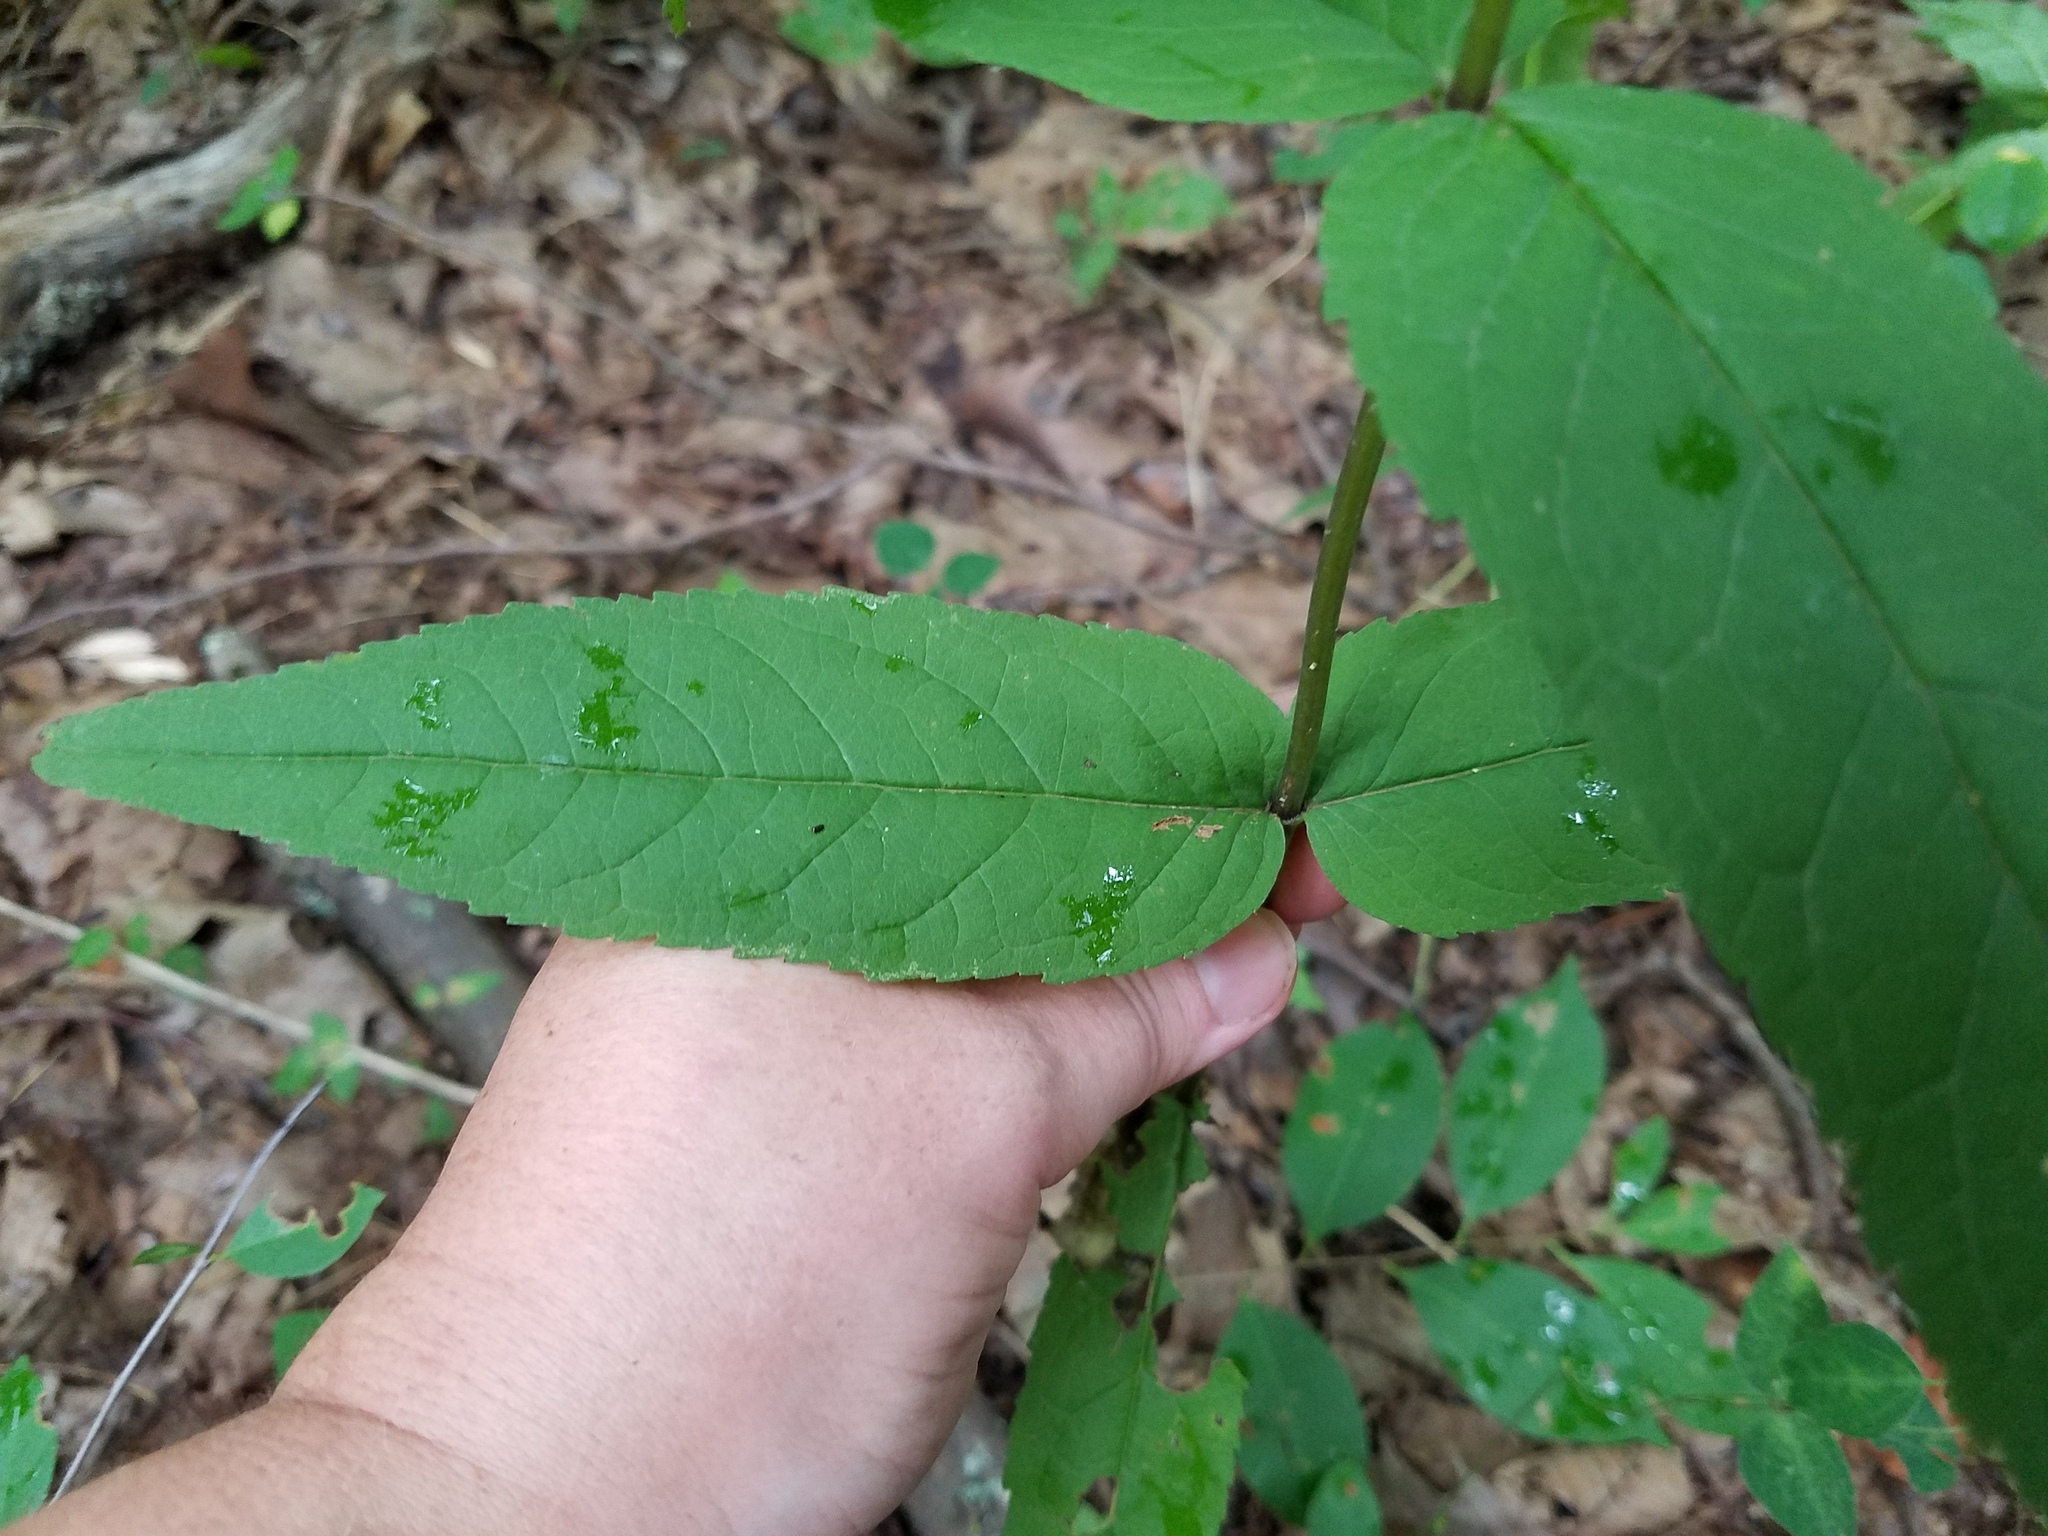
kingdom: Plantae
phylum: Tracheophyta
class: Magnoliopsida
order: Asterales
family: Asteraceae
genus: Eupatorium
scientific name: Eupatorium sessilifolium
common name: Upland boneset
